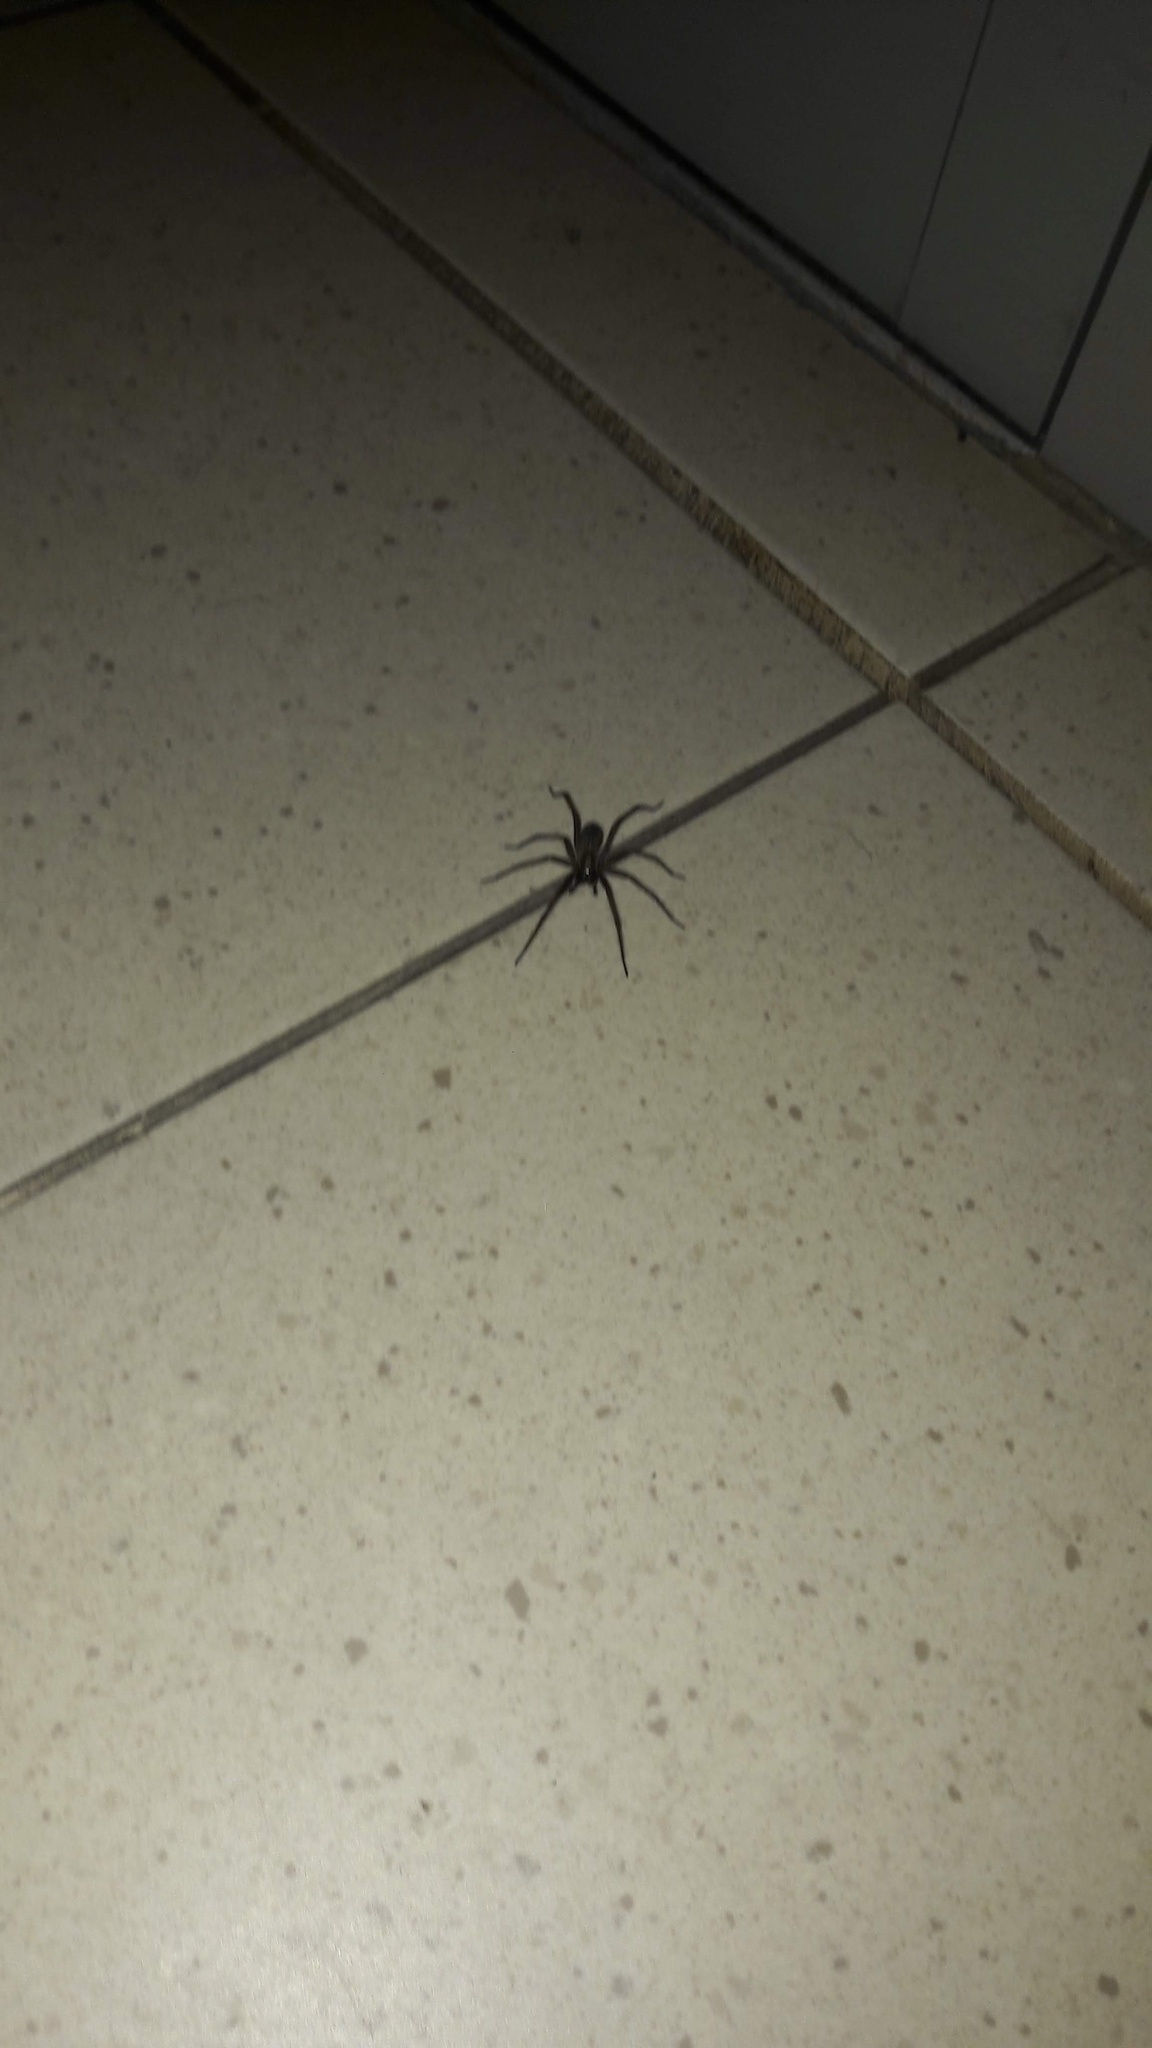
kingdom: Animalia
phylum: Arthropoda
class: Arachnida
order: Araneae
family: Agelenidae
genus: Eratigena
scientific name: Eratigena atrica
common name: Giant house spider
